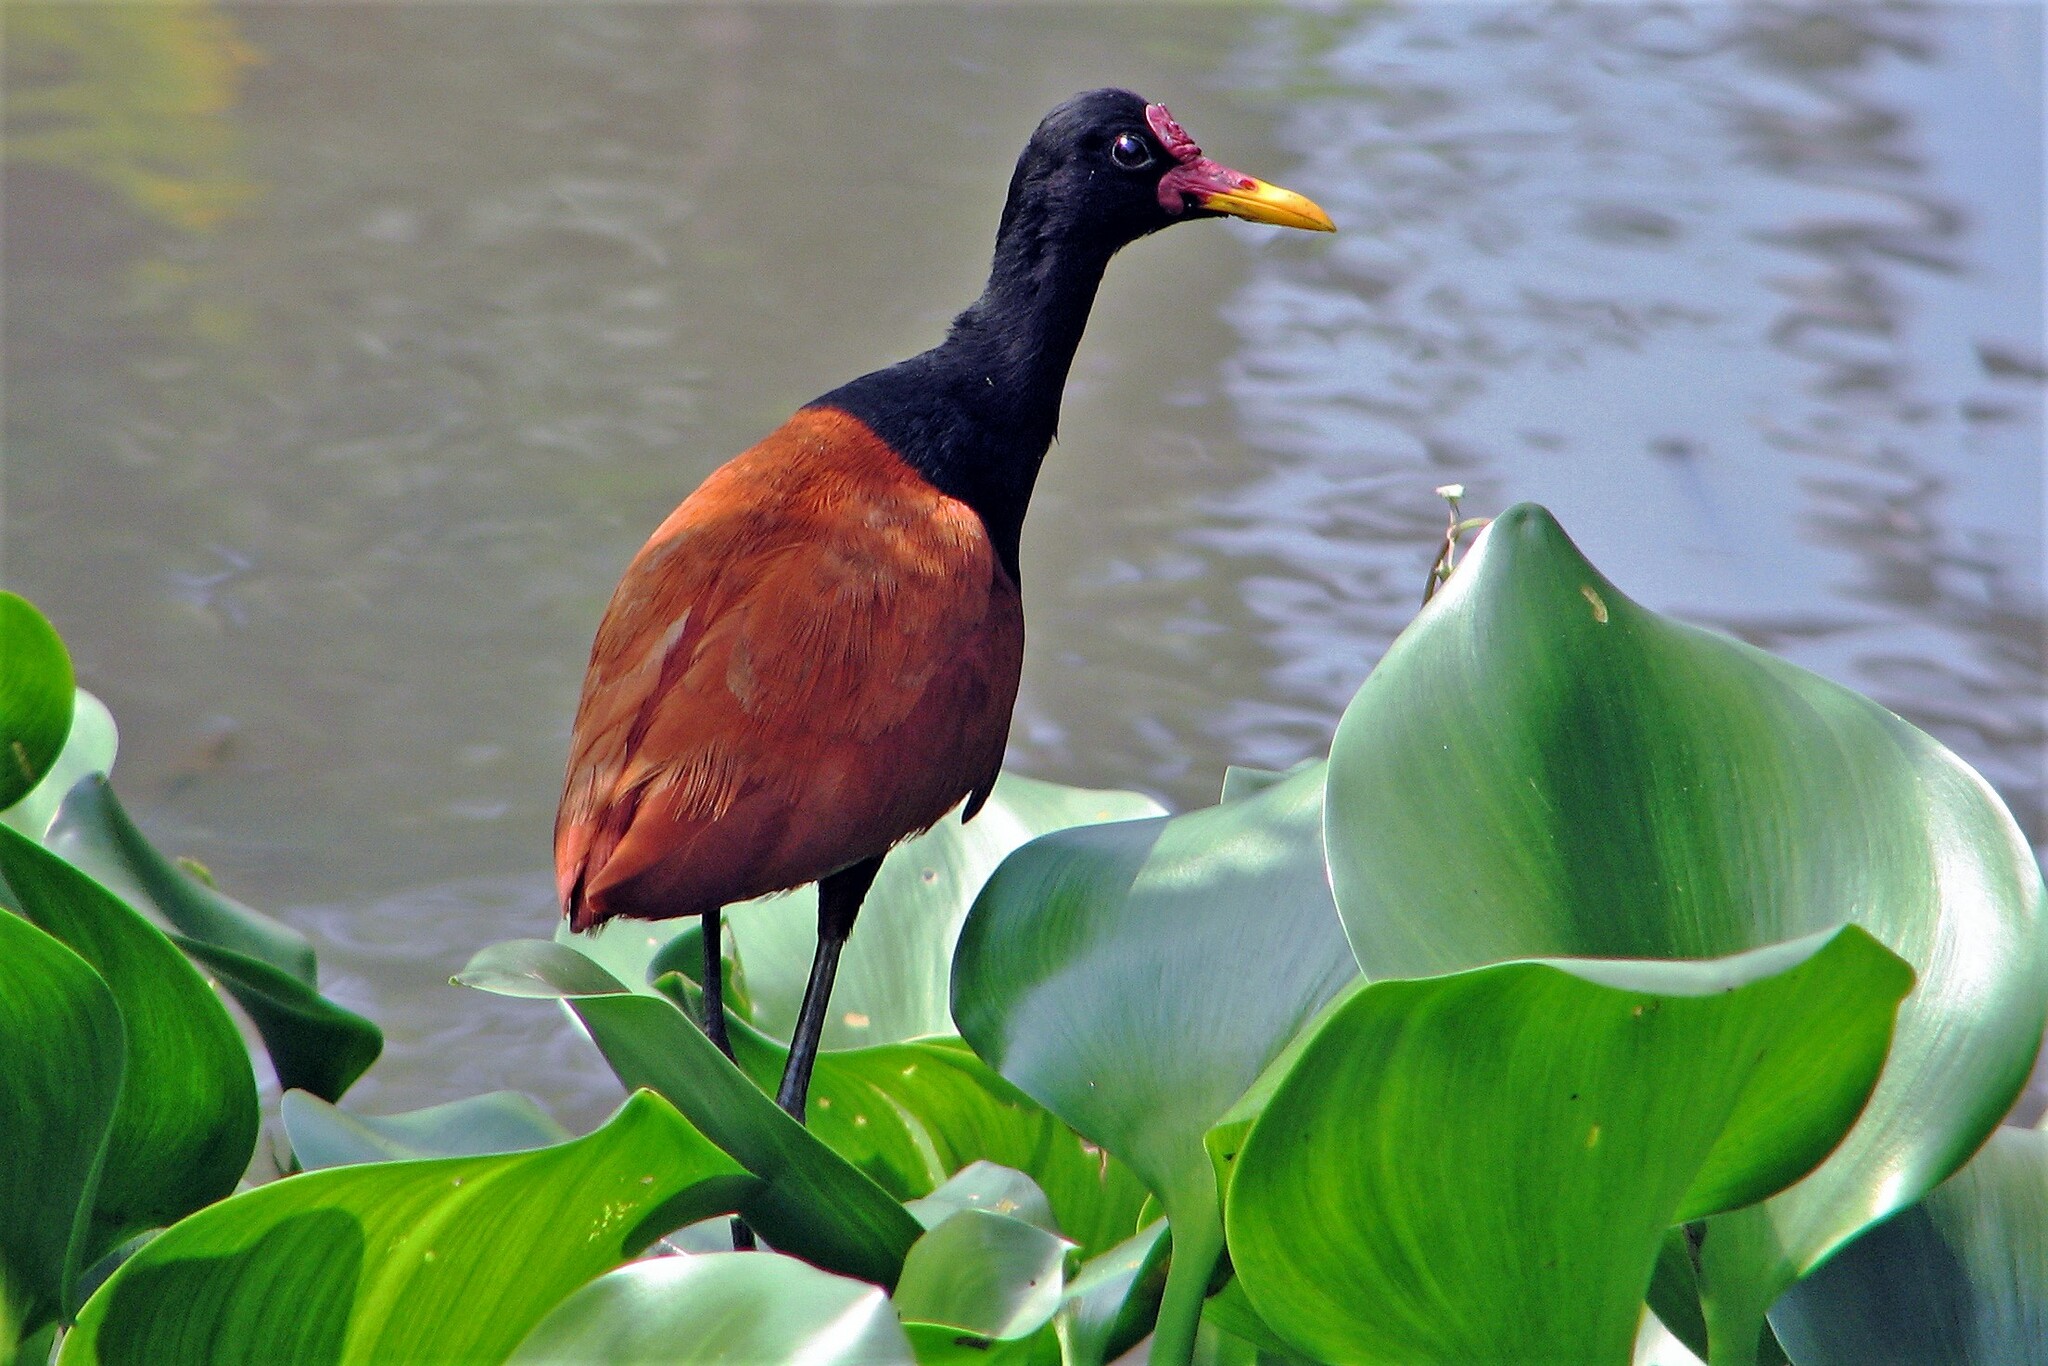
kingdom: Animalia
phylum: Chordata
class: Aves
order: Charadriiformes
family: Jacanidae
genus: Jacana
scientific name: Jacana jacana
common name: Wattled jacana
